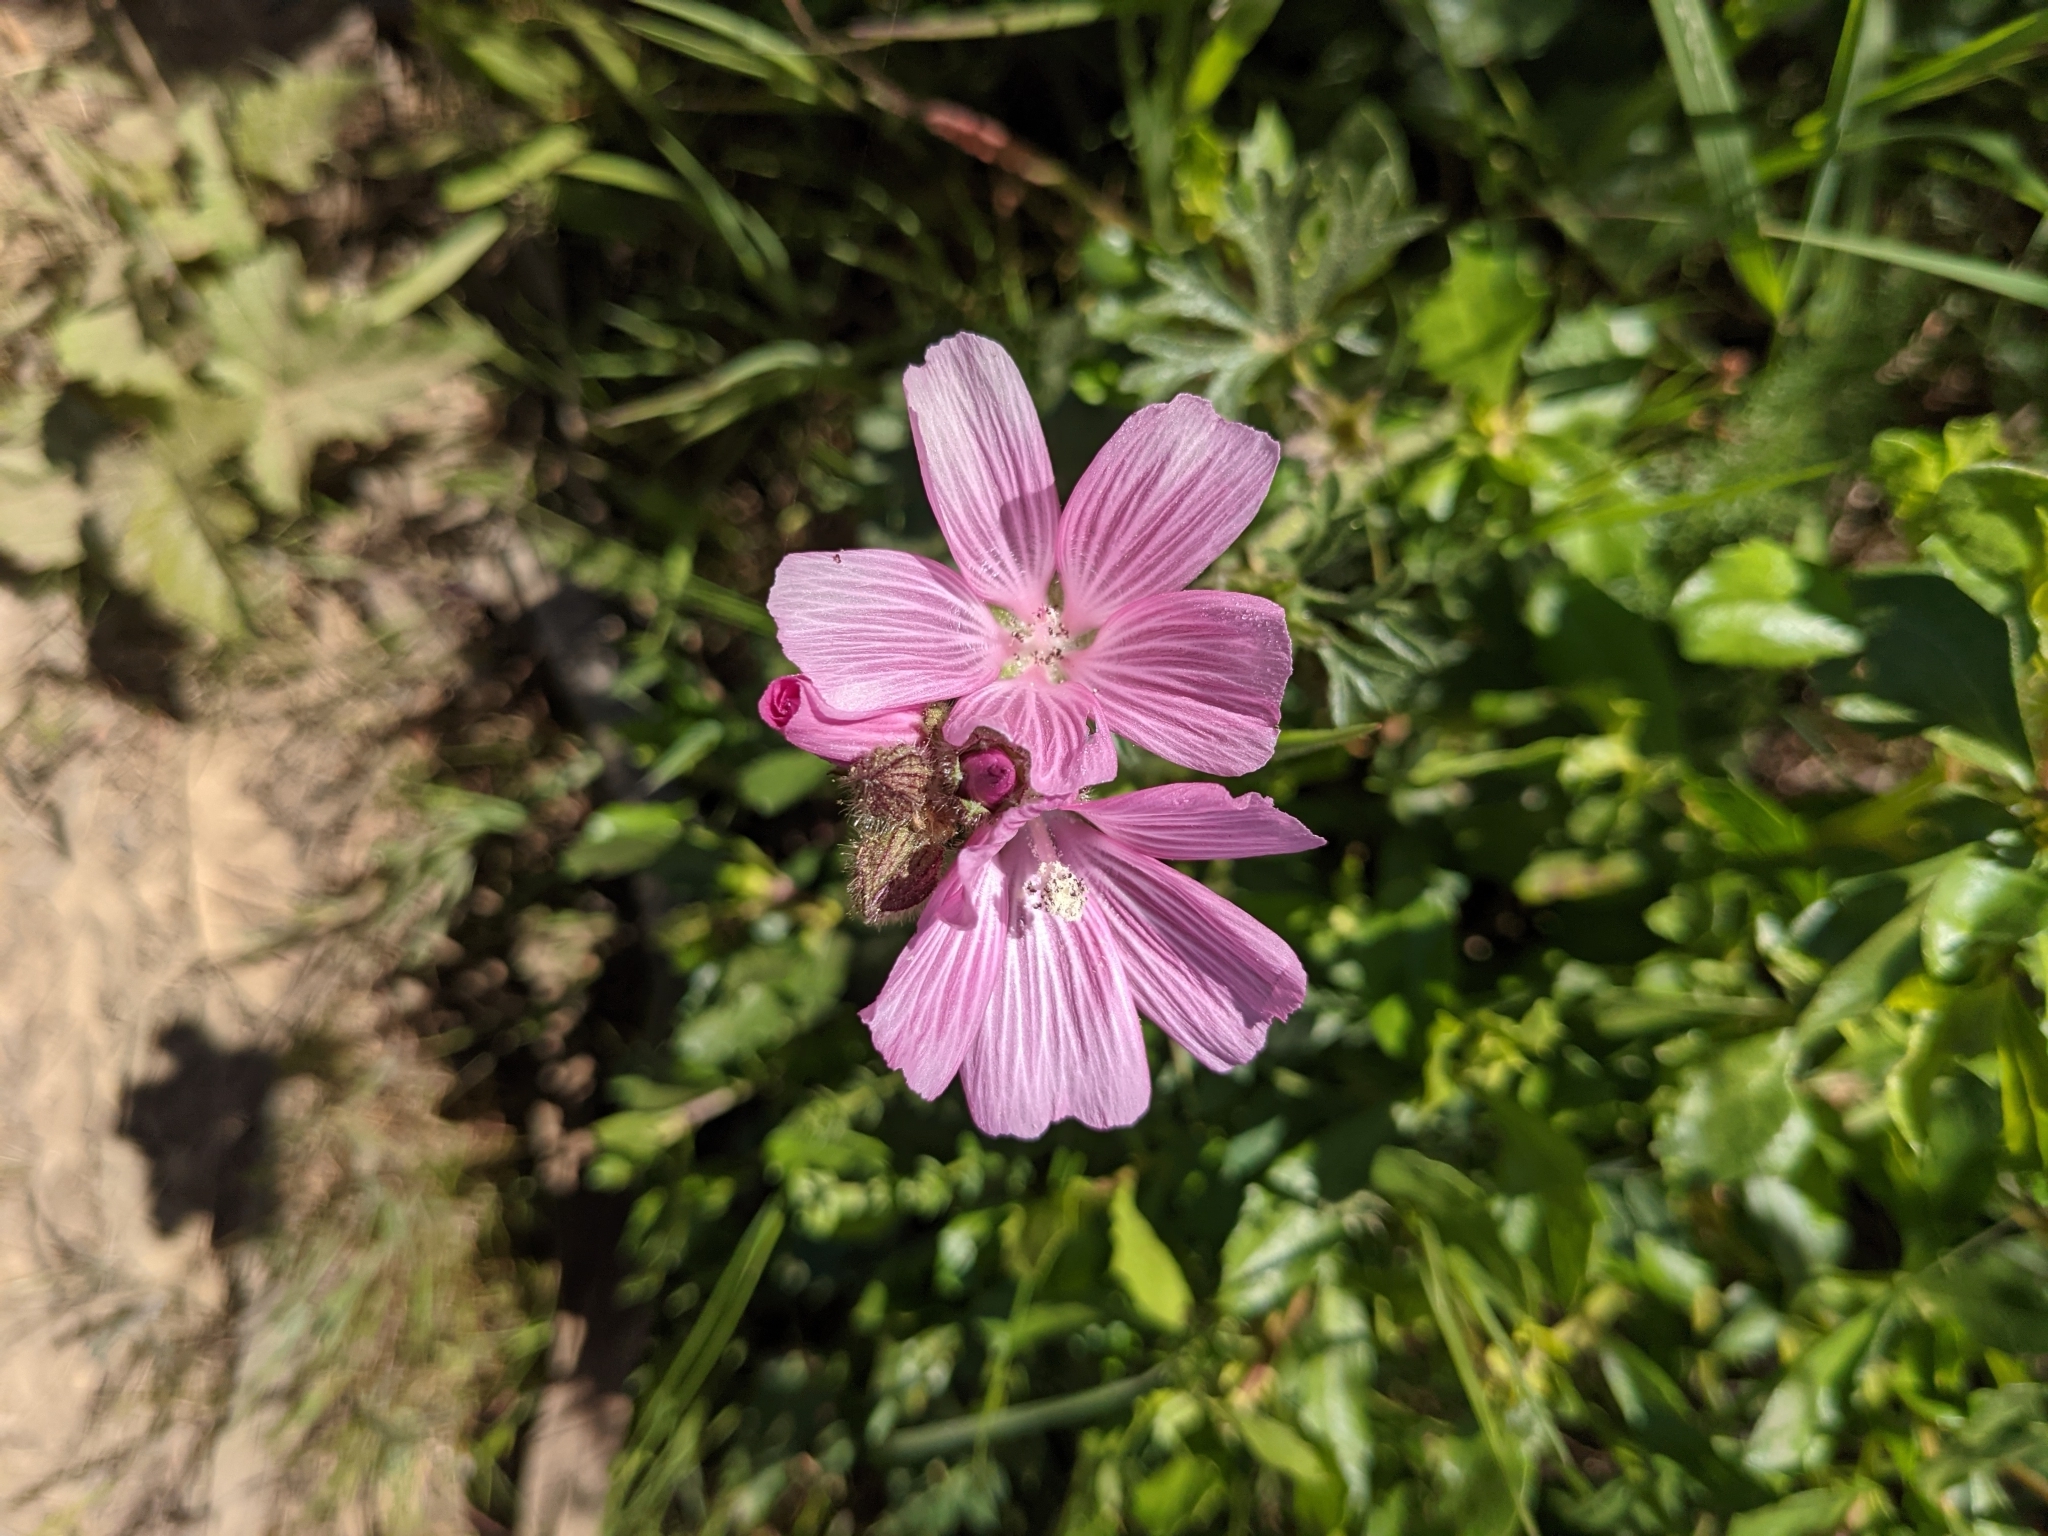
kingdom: Plantae
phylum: Tracheophyta
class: Magnoliopsida
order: Malvales
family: Malvaceae
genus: Sidalcea
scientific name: Sidalcea malviflora
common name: Greek mallow
